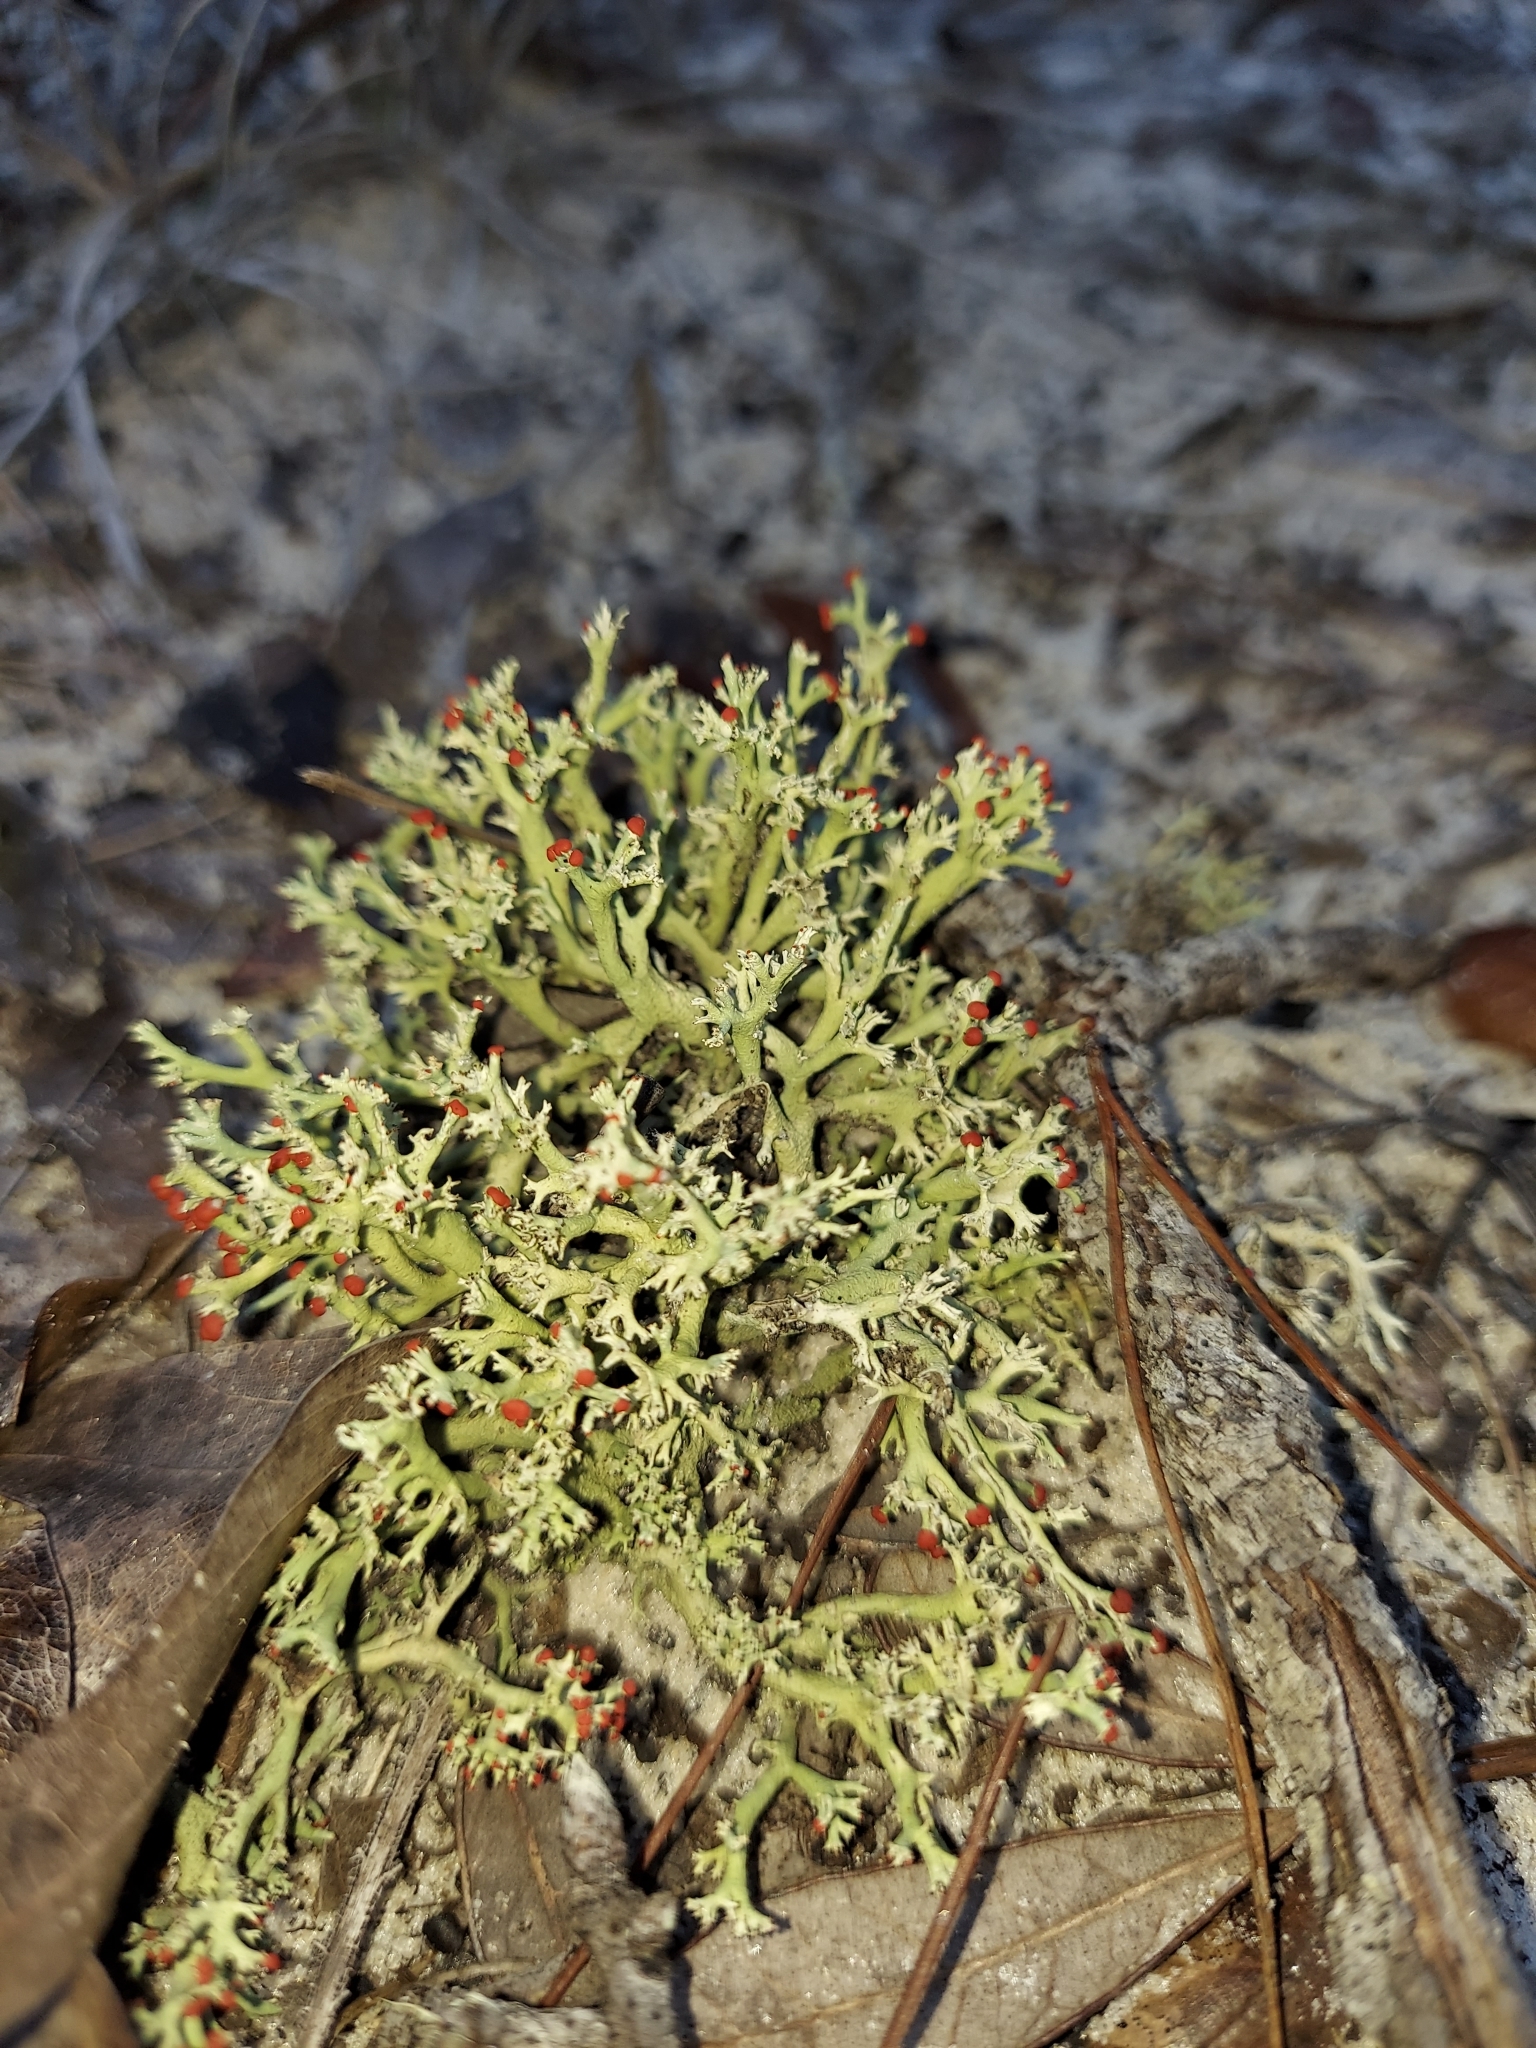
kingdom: Fungi
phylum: Ascomycota
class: Lecanoromycetes
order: Lecanorales
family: Cladoniaceae
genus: Cladonia
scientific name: Cladonia leporina
